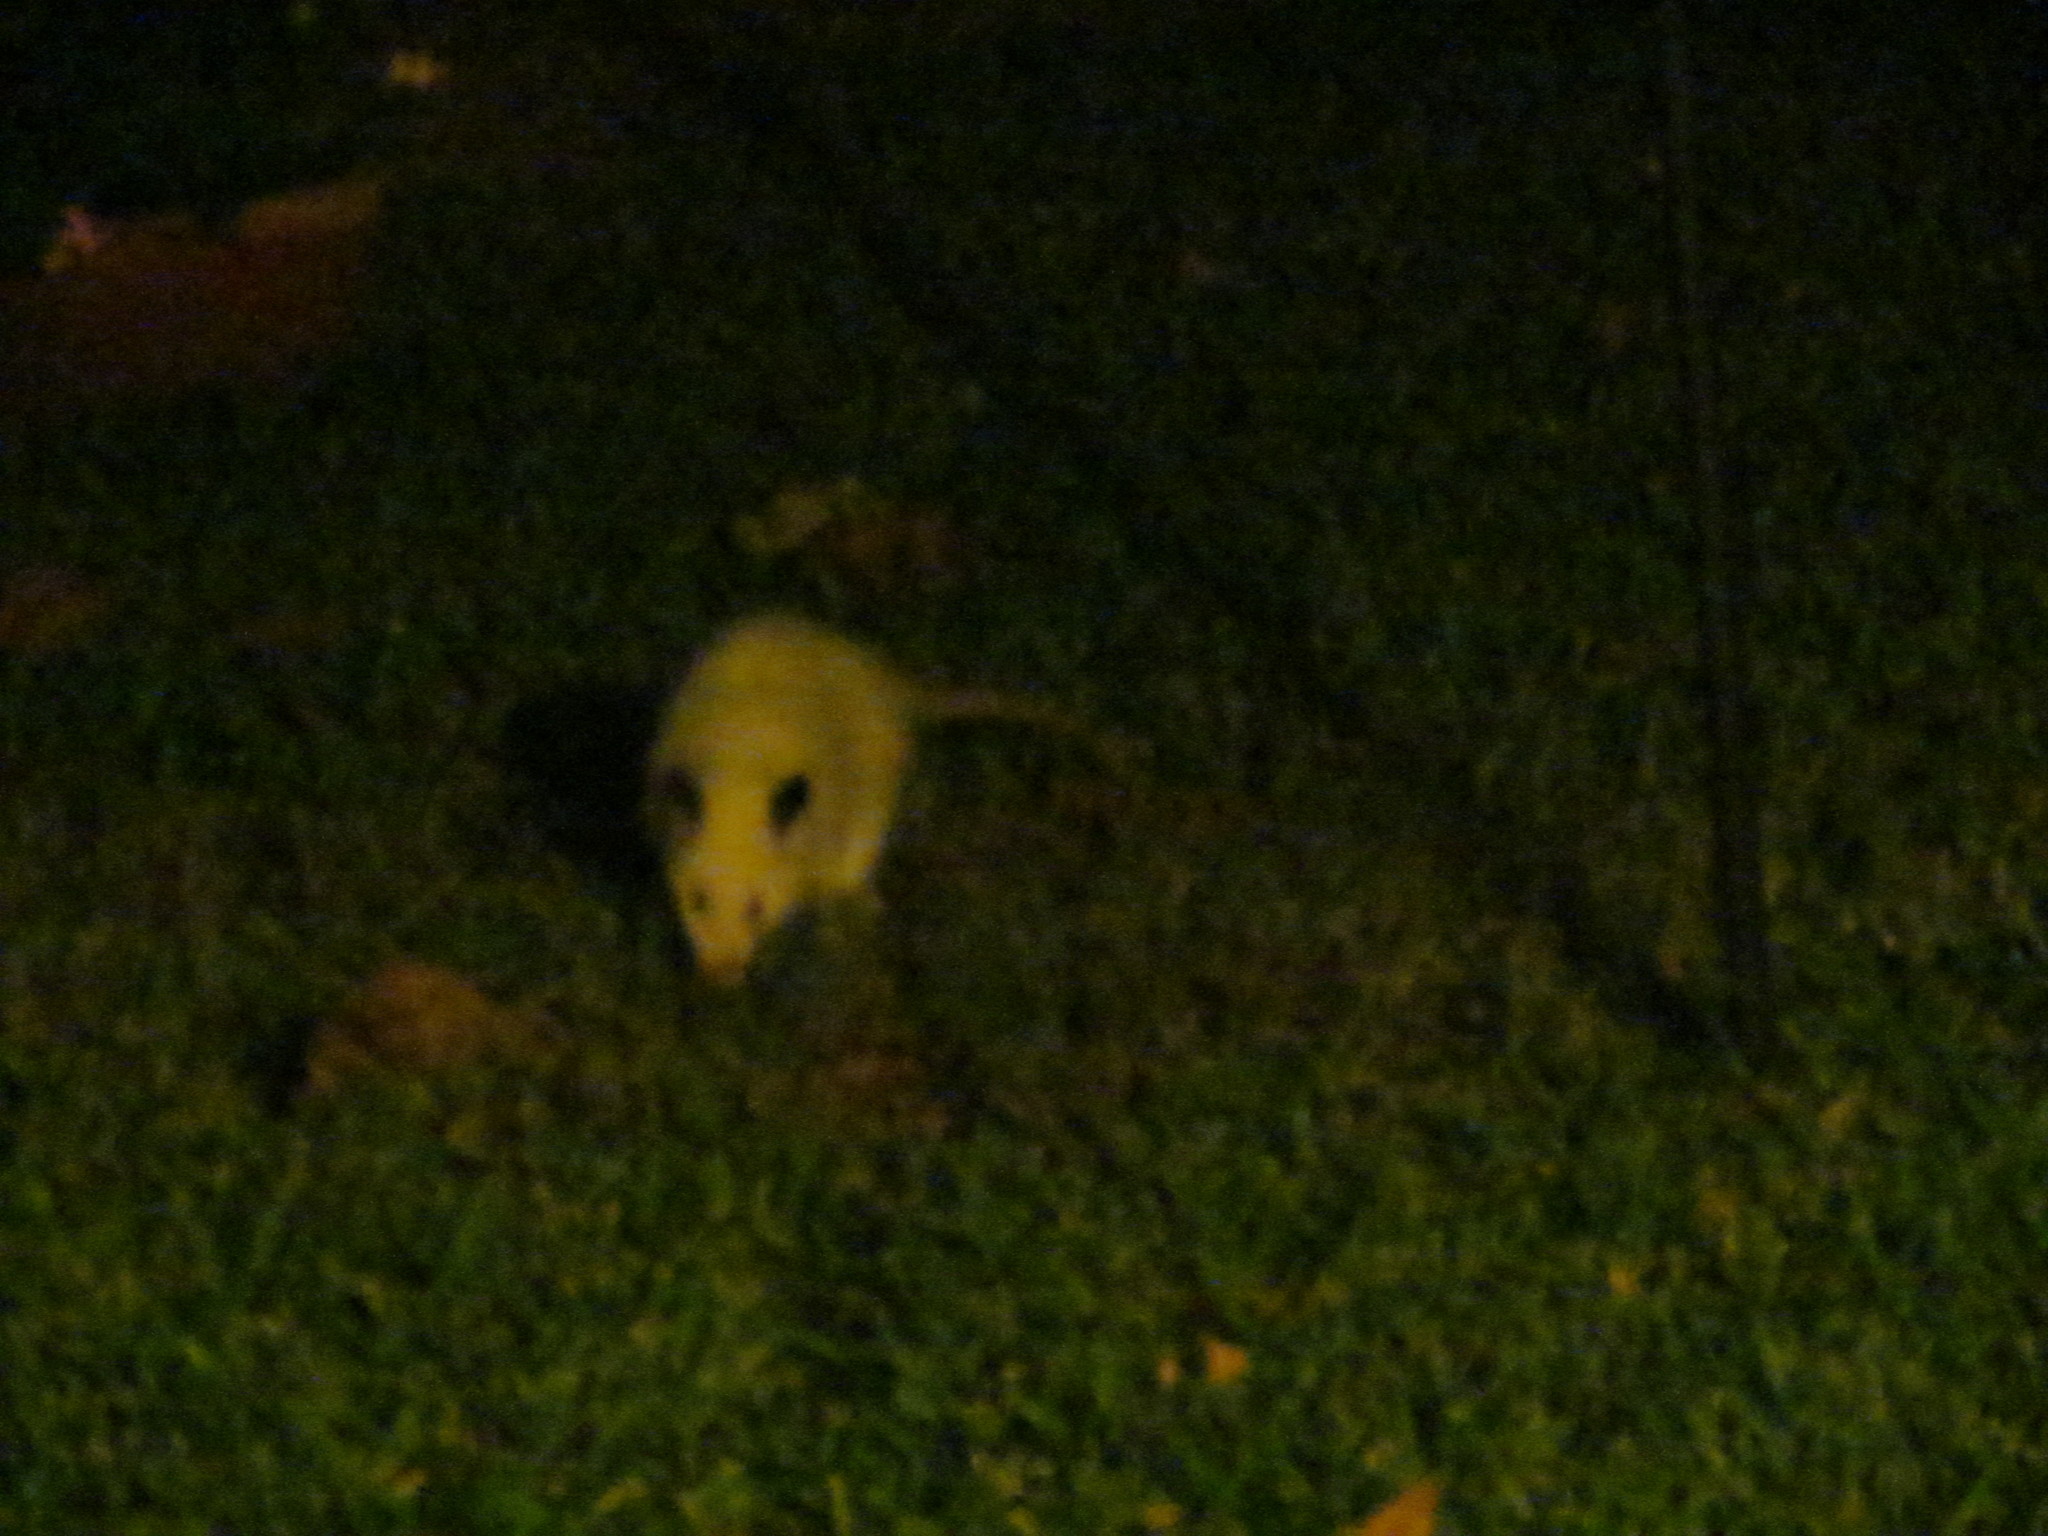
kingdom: Animalia
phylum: Chordata
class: Mammalia
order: Didelphimorphia
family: Didelphidae
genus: Didelphis
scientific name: Didelphis virginiana
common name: Virginia opossum
